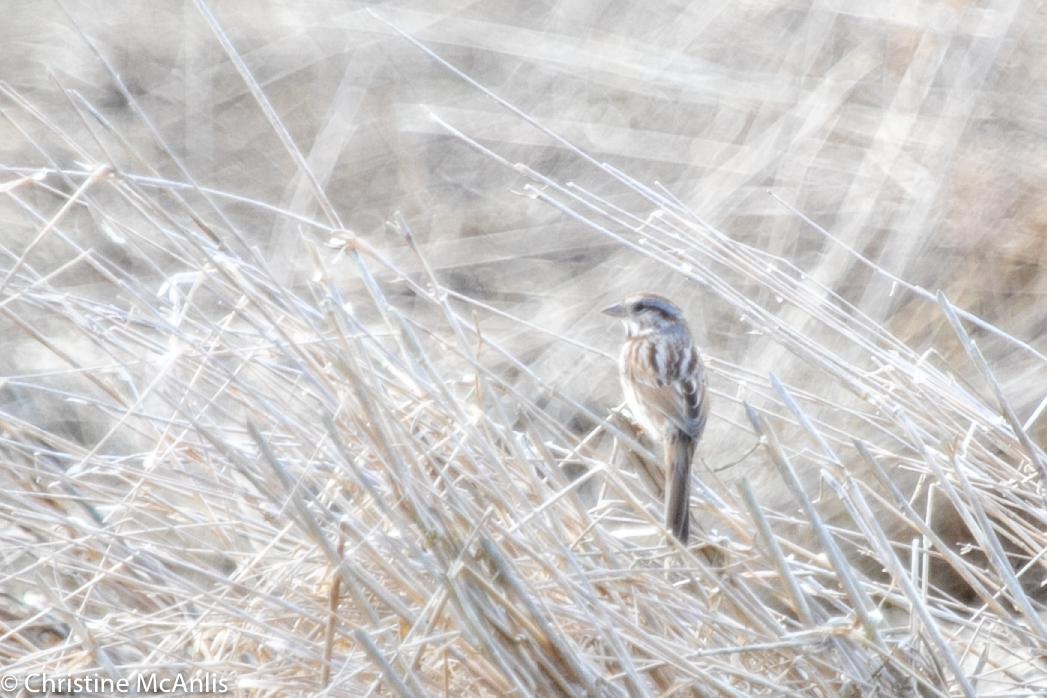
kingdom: Animalia
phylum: Chordata
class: Aves
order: Passeriformes
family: Passerellidae
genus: Melospiza
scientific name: Melospiza melodia
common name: Song sparrow
